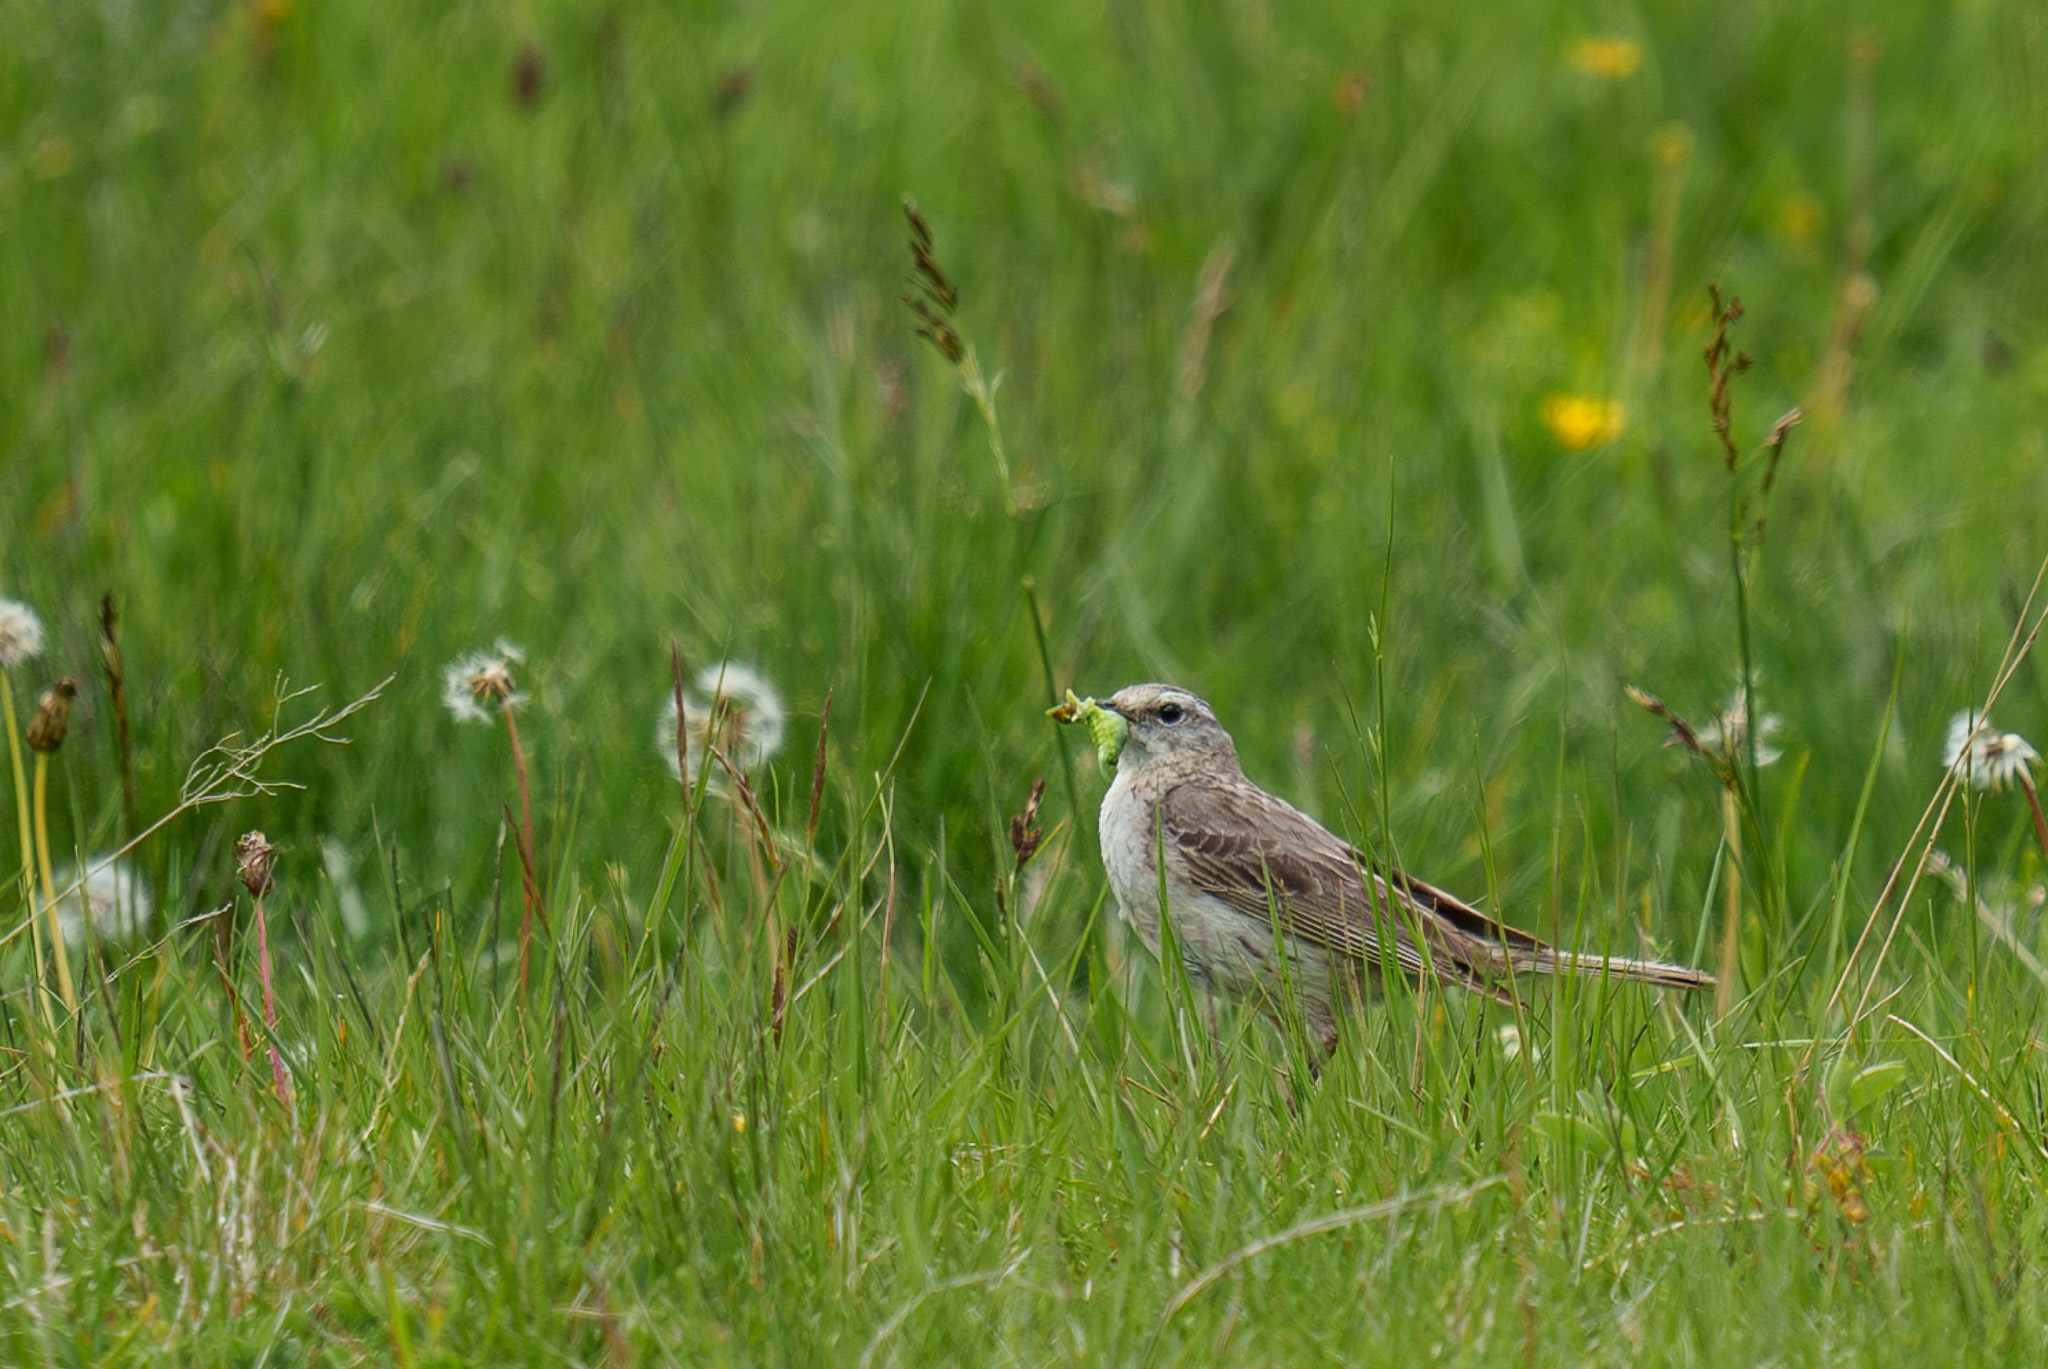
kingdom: Animalia
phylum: Chordata
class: Aves
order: Passeriformes
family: Motacillidae
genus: Anthus
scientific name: Anthus spinoletta
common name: Water pipit
